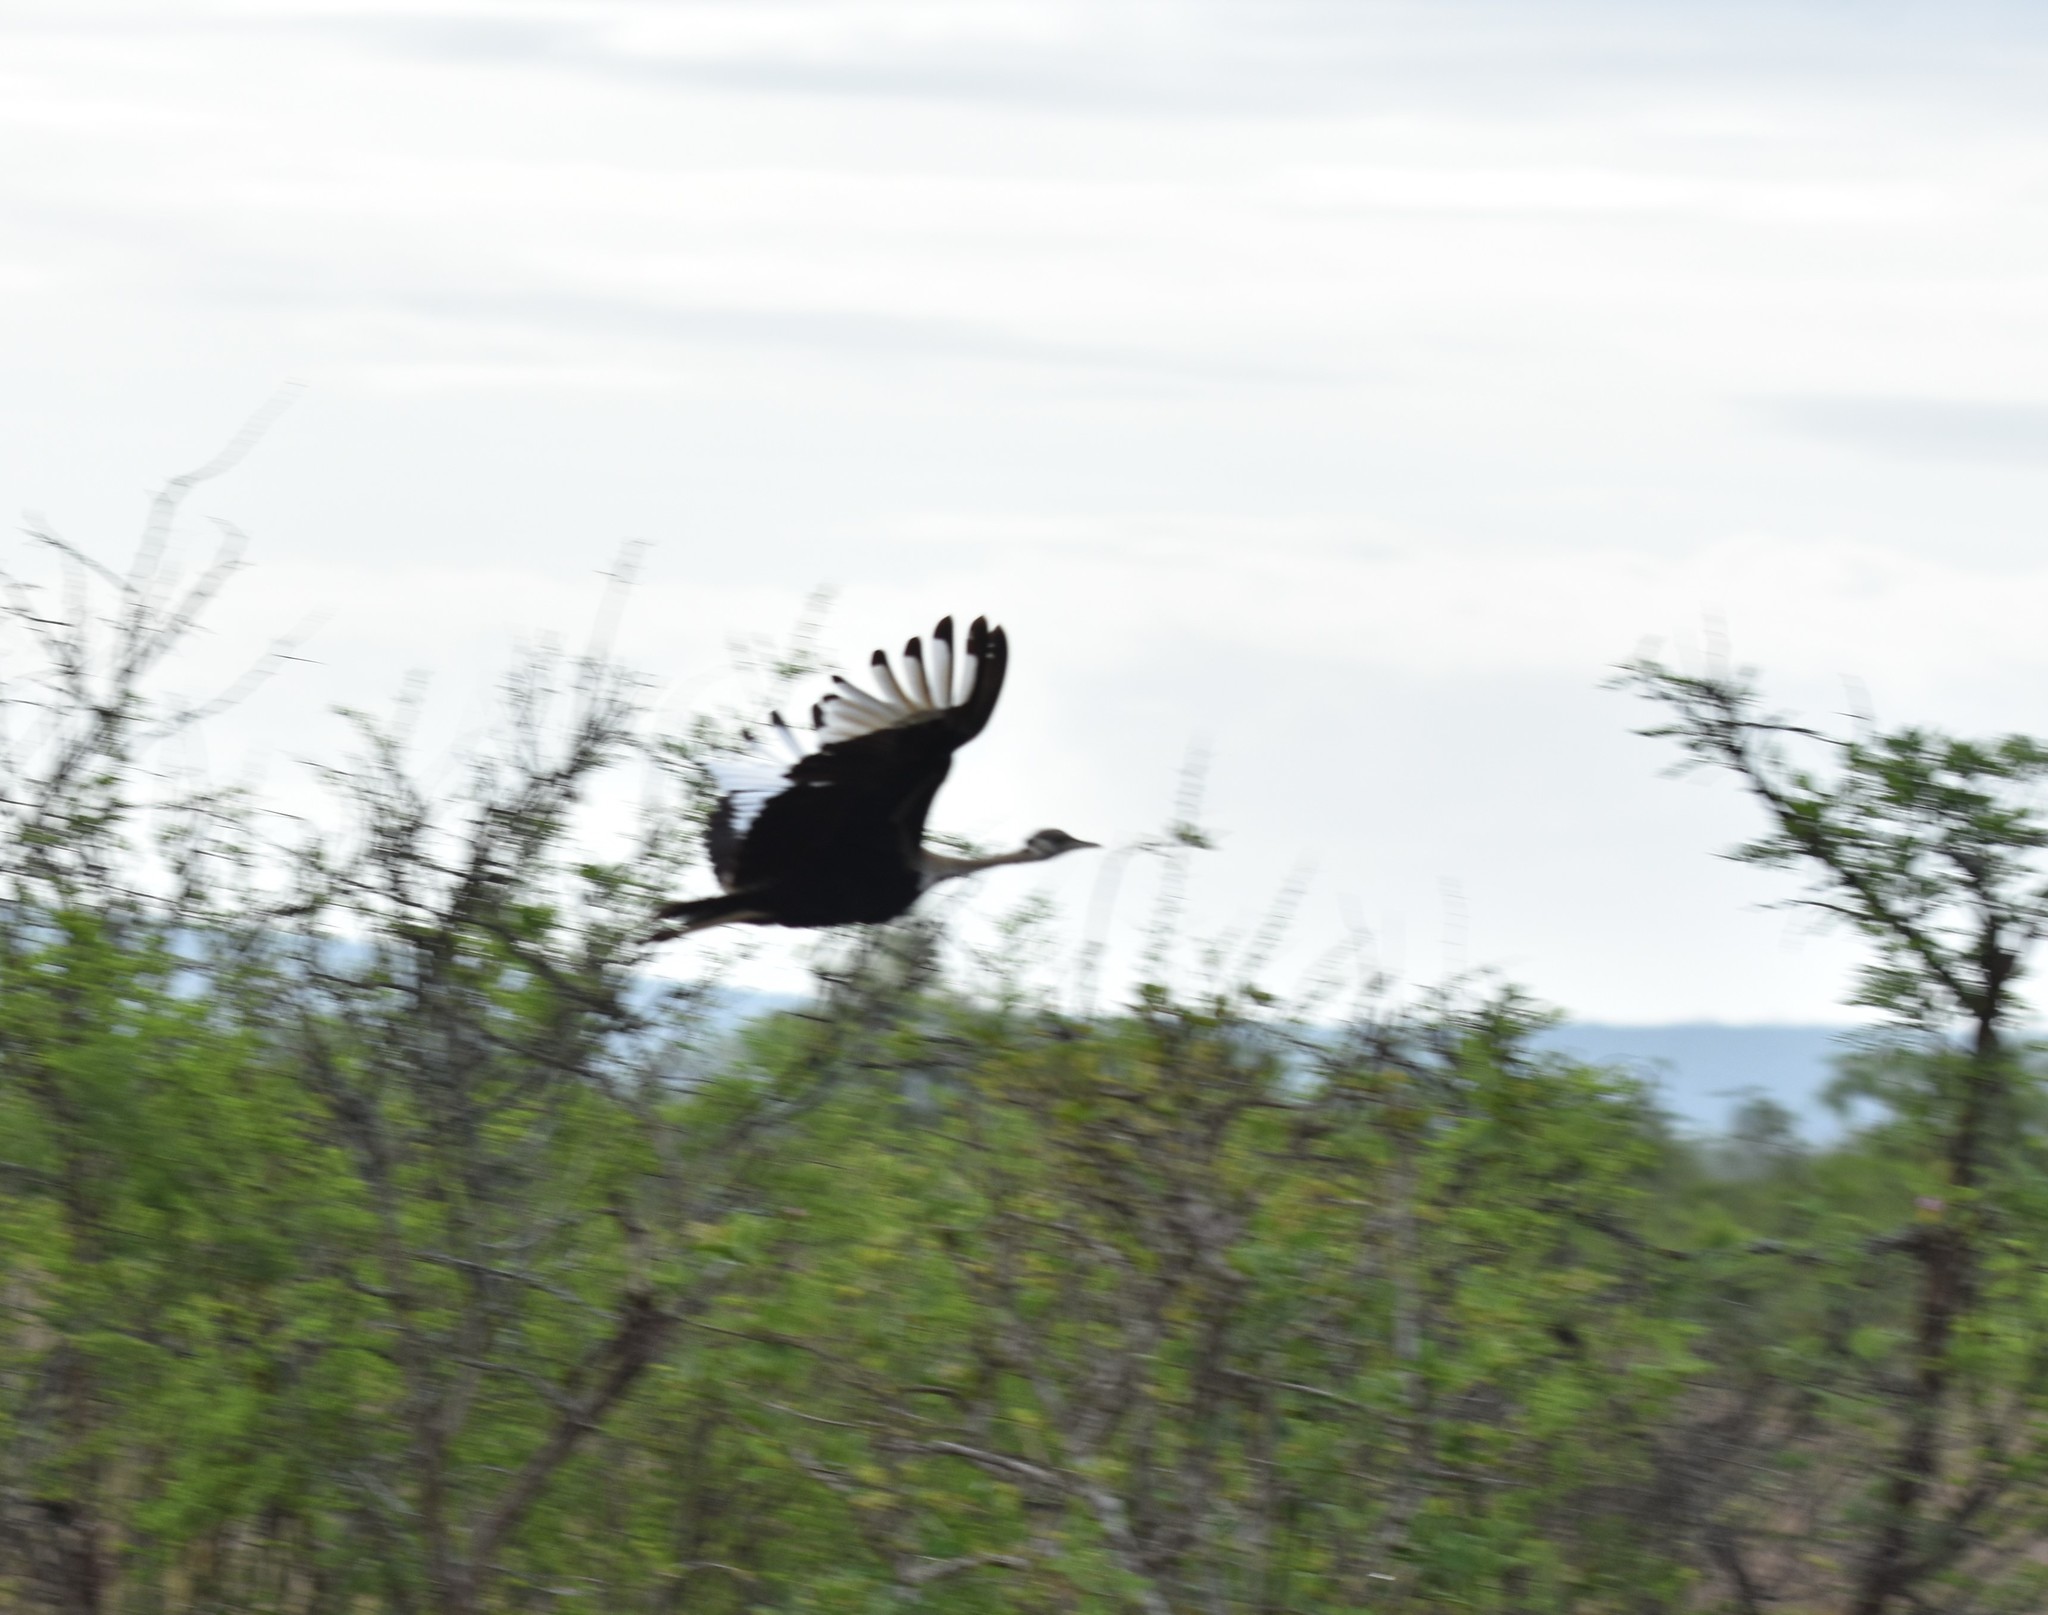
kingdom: Animalia
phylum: Chordata
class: Aves
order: Otidiformes
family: Otididae
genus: Lissotis
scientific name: Lissotis melanogaster
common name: Black-bellied bustard
